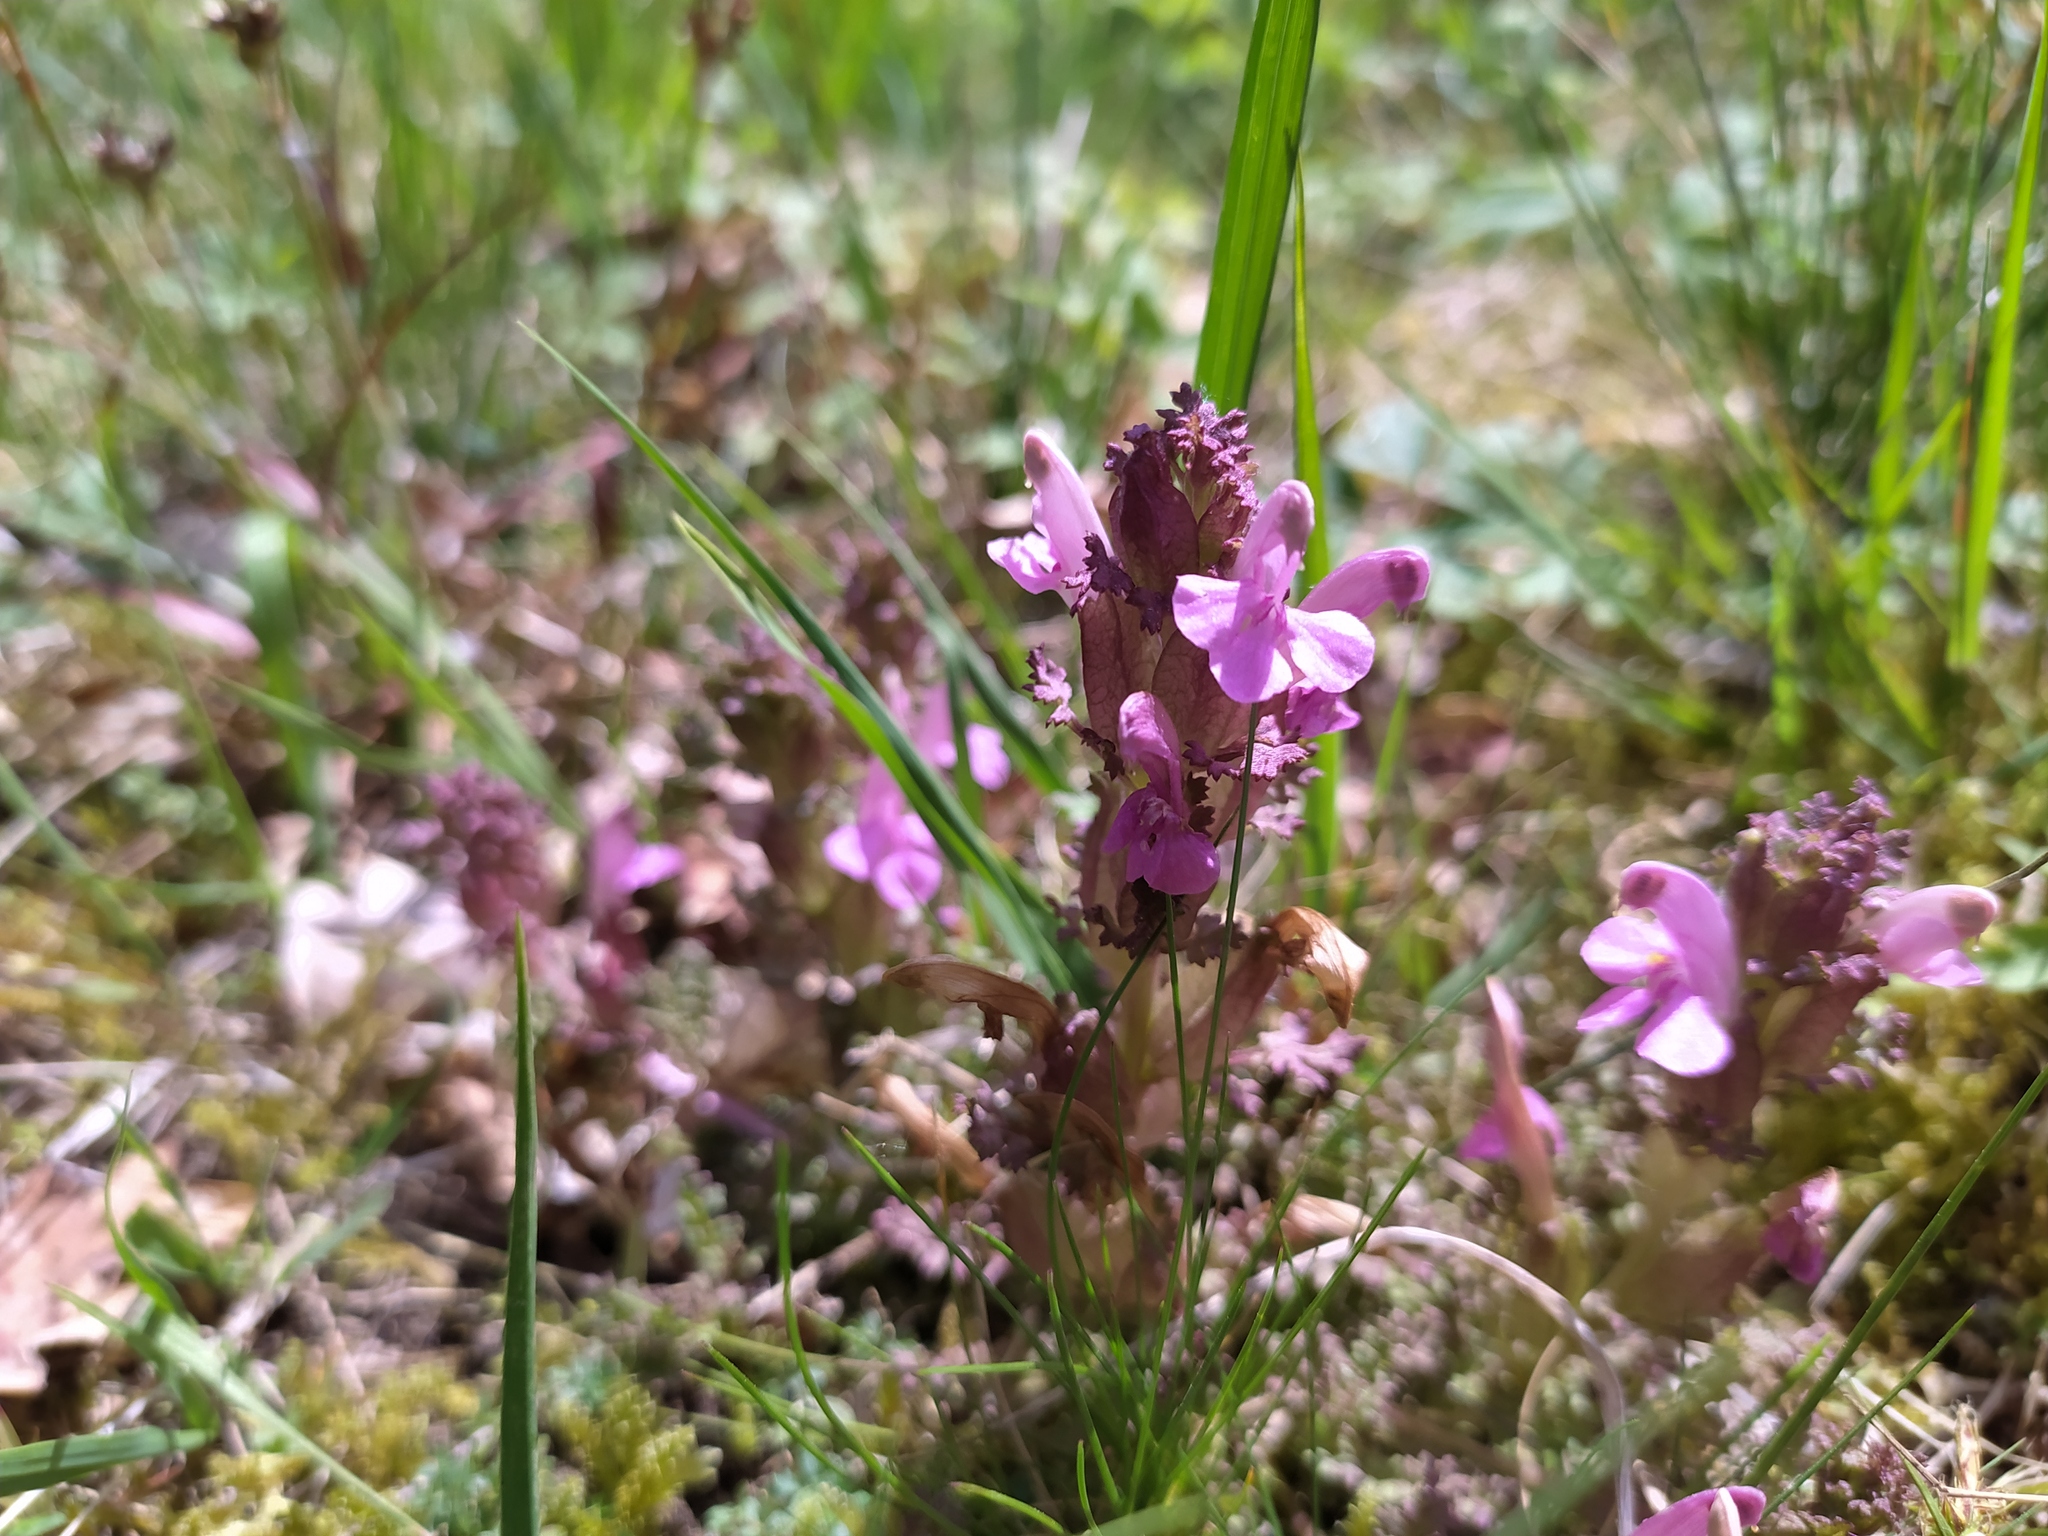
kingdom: Plantae
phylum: Tracheophyta
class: Magnoliopsida
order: Lamiales
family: Orobanchaceae
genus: Pedicularis
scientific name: Pedicularis sylvatica
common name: Lousewort
